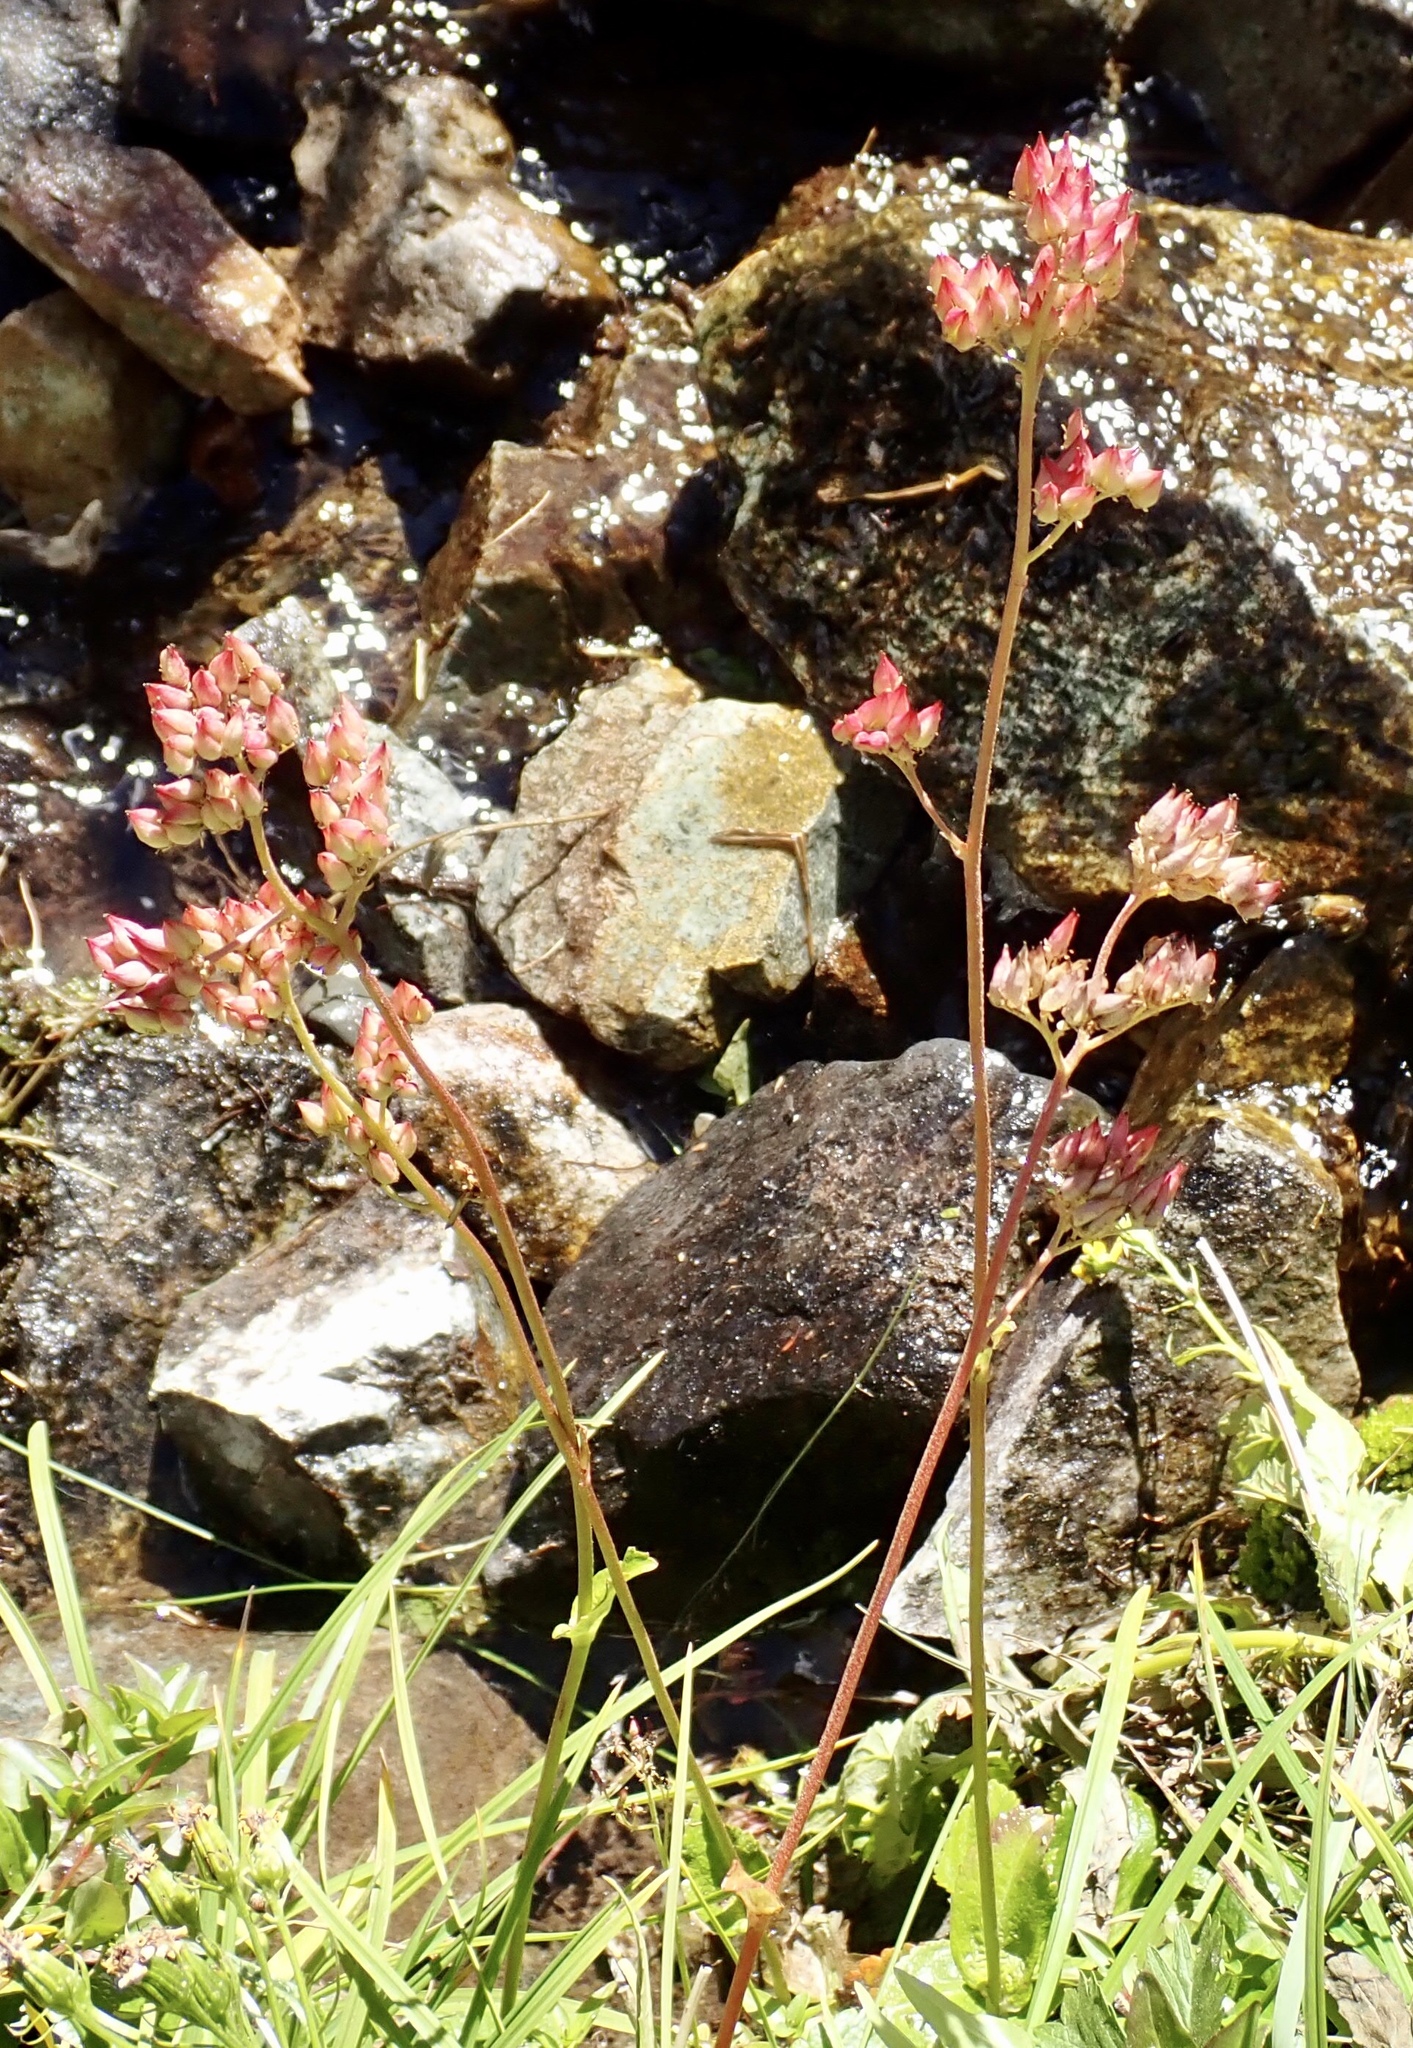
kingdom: Plantae
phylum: Tracheophyta
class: Magnoliopsida
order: Saxifragales
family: Saxifragaceae
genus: Leptarrhena
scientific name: Leptarrhena pyrolifolia
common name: Leatherleaf-saxifrage
